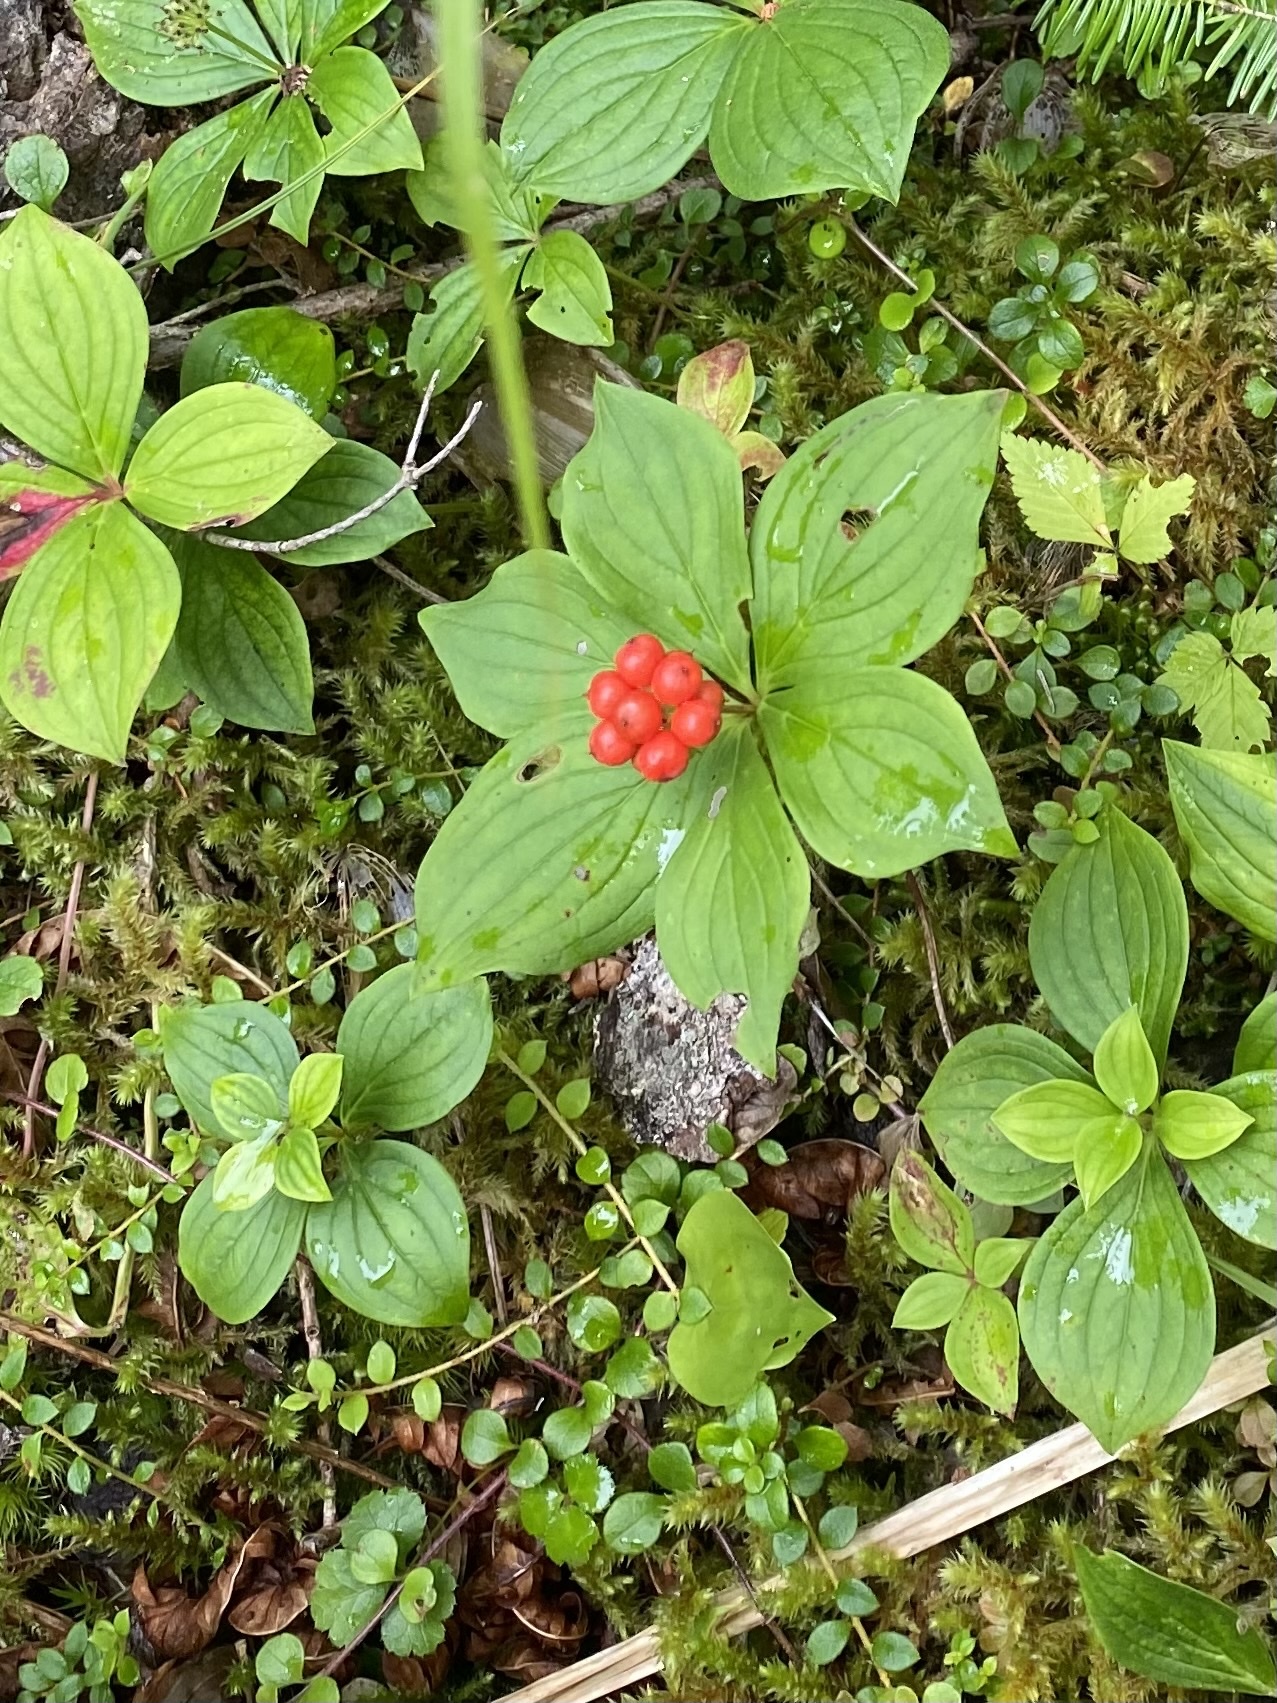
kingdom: Plantae
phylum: Tracheophyta
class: Magnoliopsida
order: Cornales
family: Cornaceae
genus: Cornus
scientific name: Cornus canadensis
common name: Creeping dogwood
